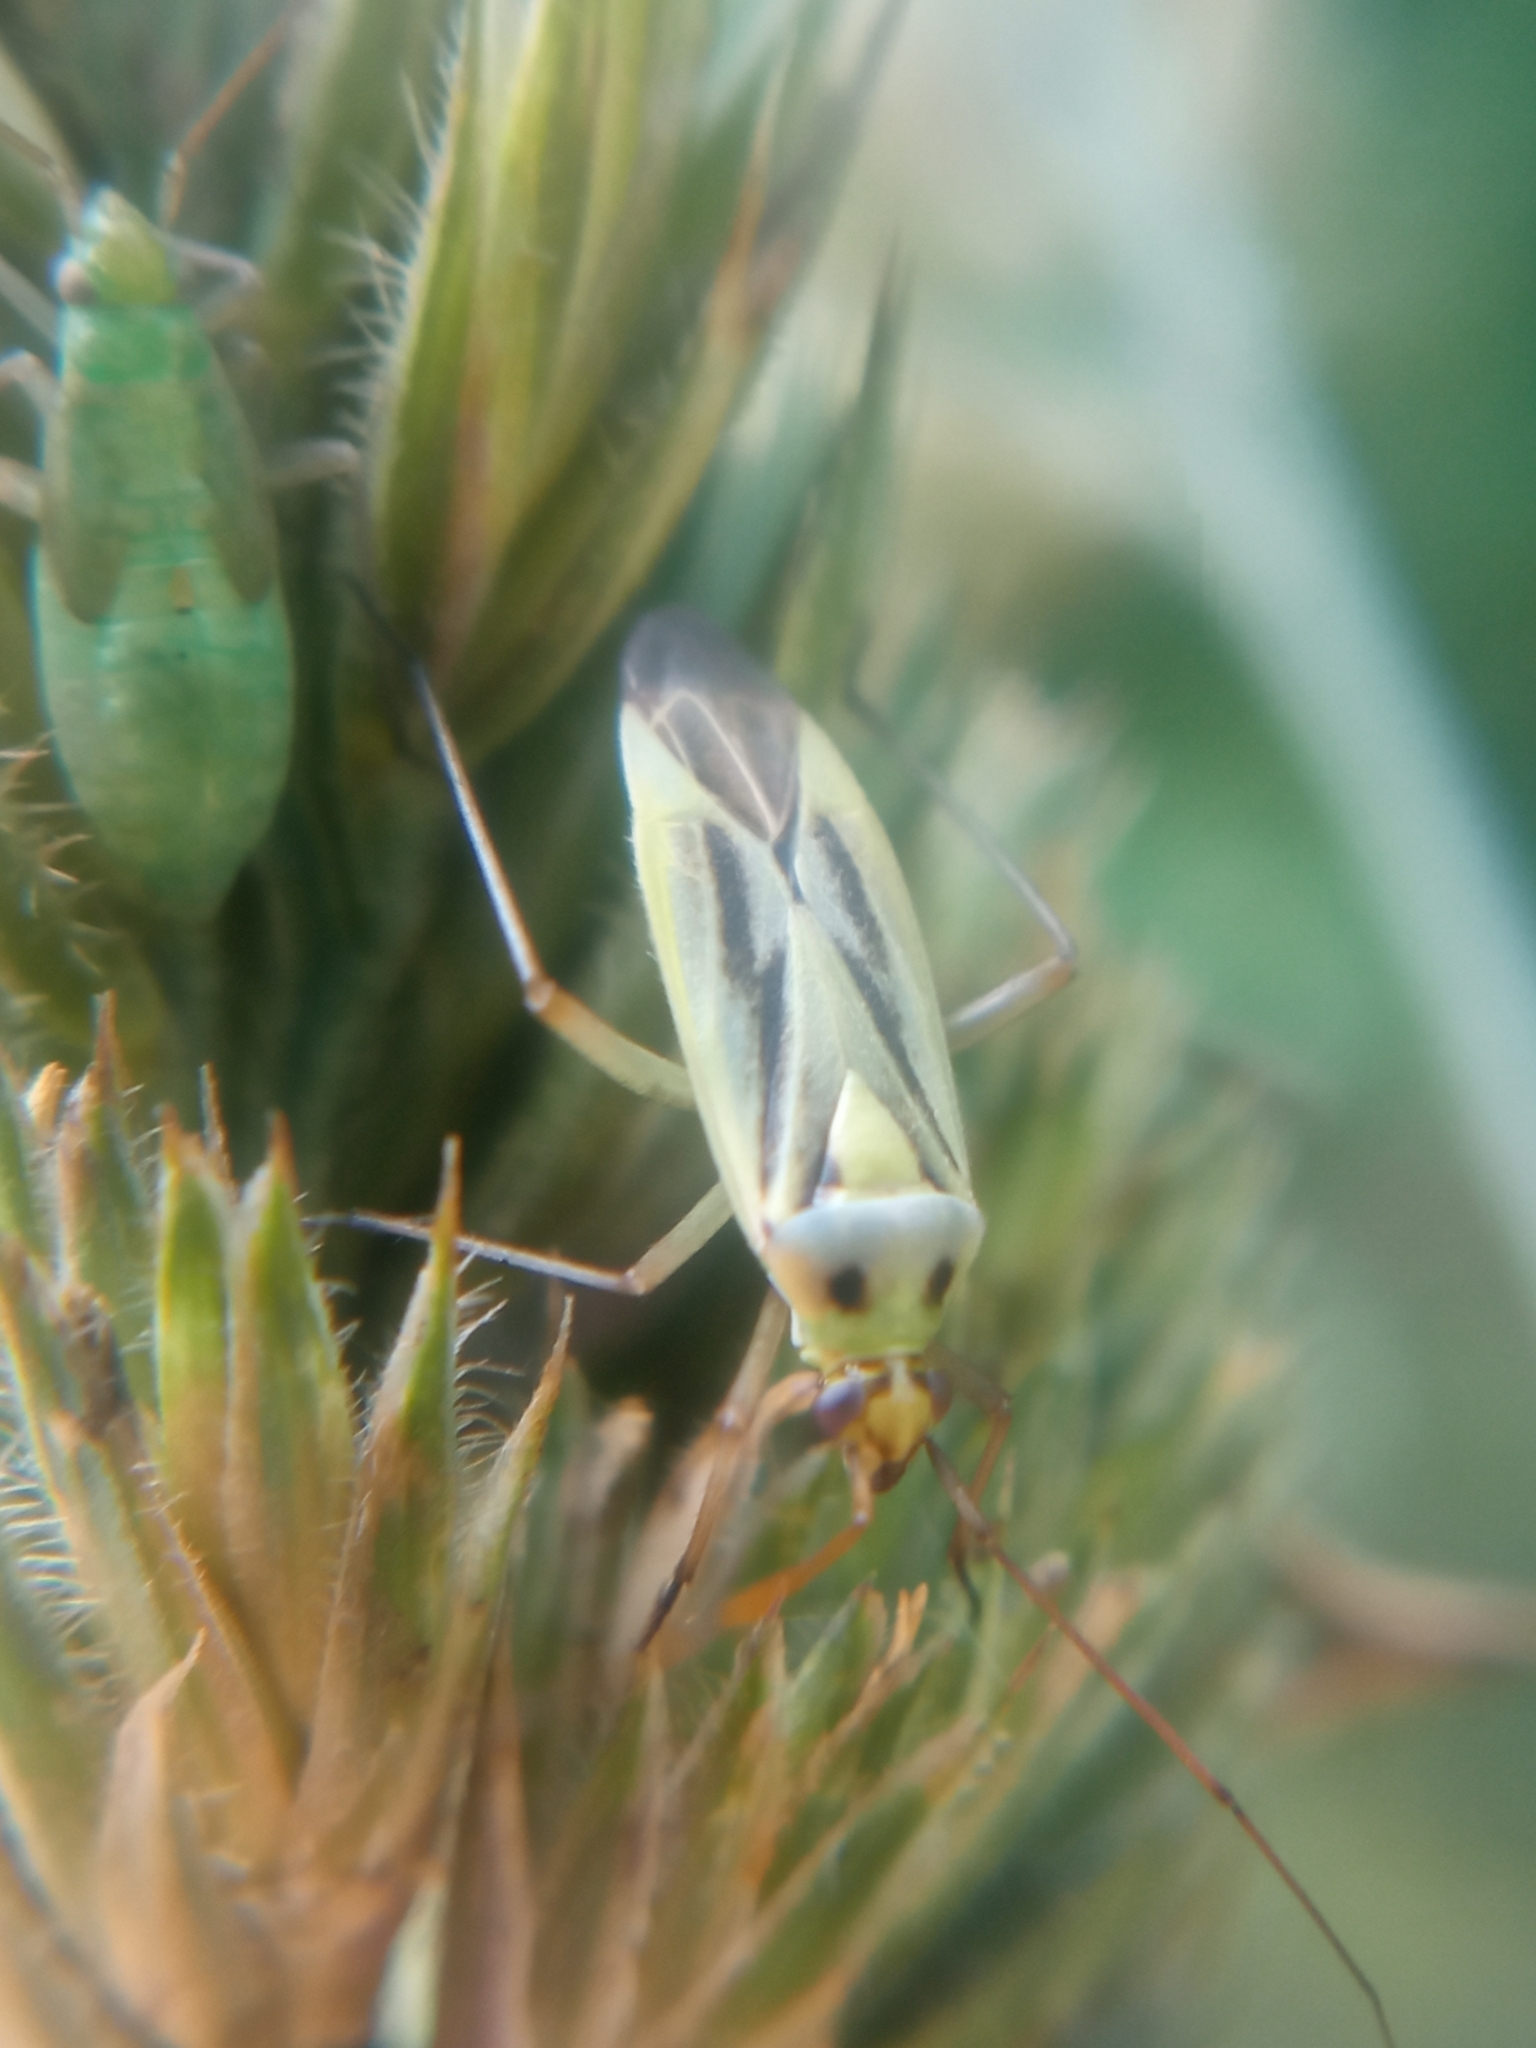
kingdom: Animalia
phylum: Arthropoda
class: Insecta
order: Hemiptera
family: Miridae
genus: Stenotus
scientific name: Stenotus binotatus
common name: Plant bug
